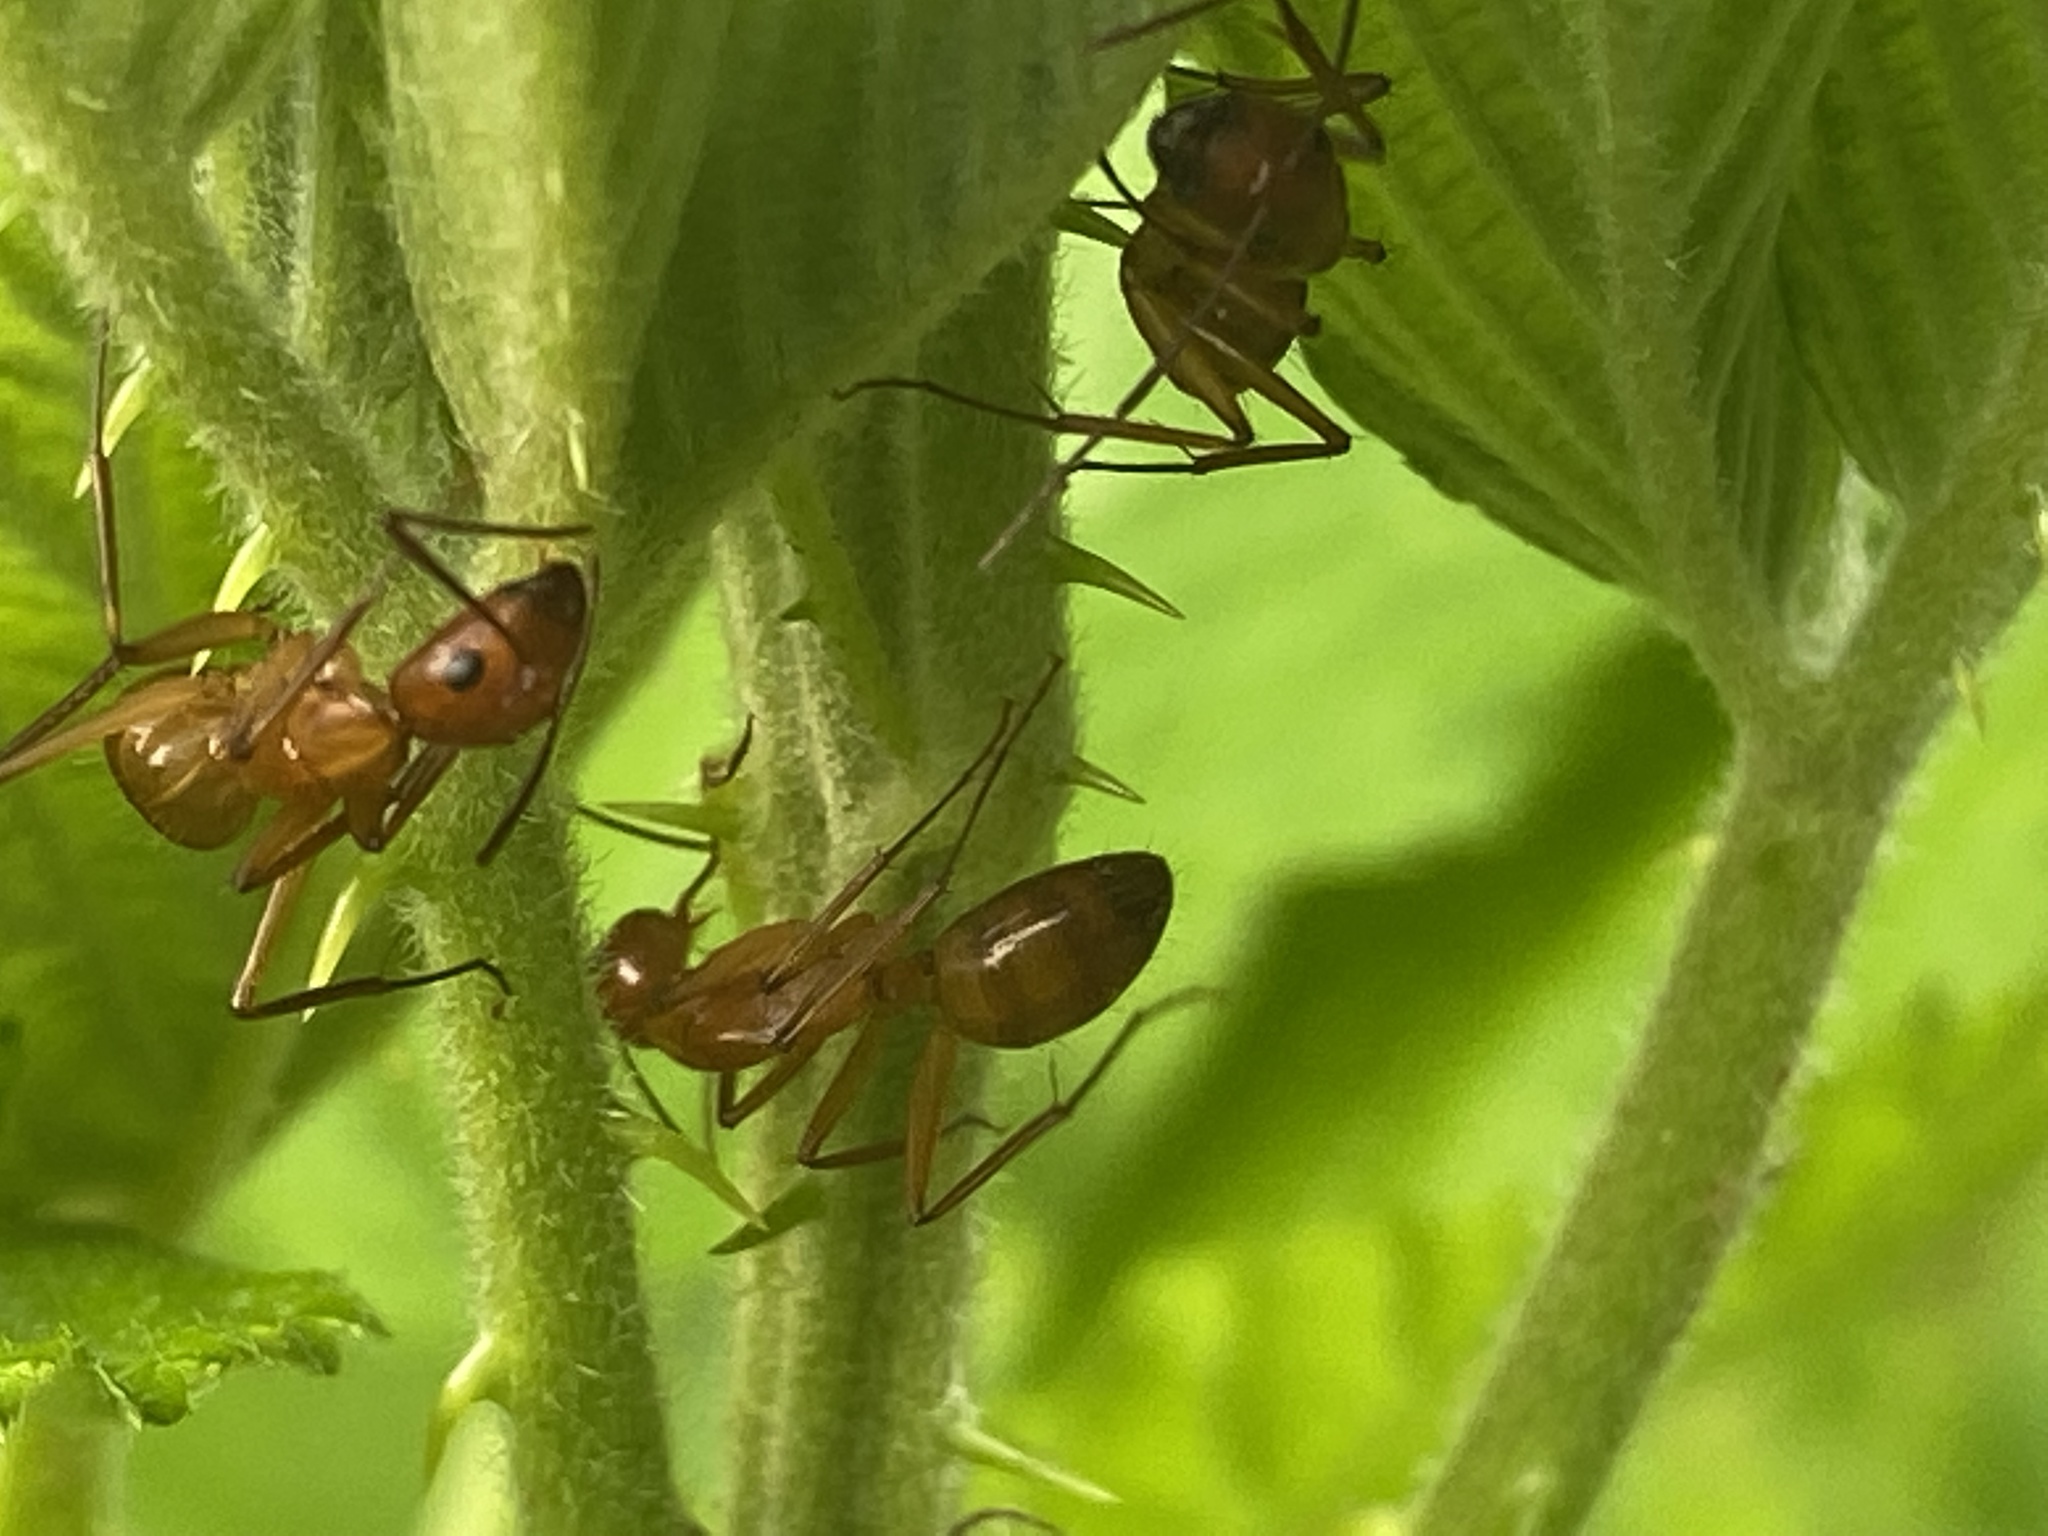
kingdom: Animalia
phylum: Arthropoda
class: Insecta
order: Hymenoptera
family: Formicidae
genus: Camponotus
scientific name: Camponotus castaneus
